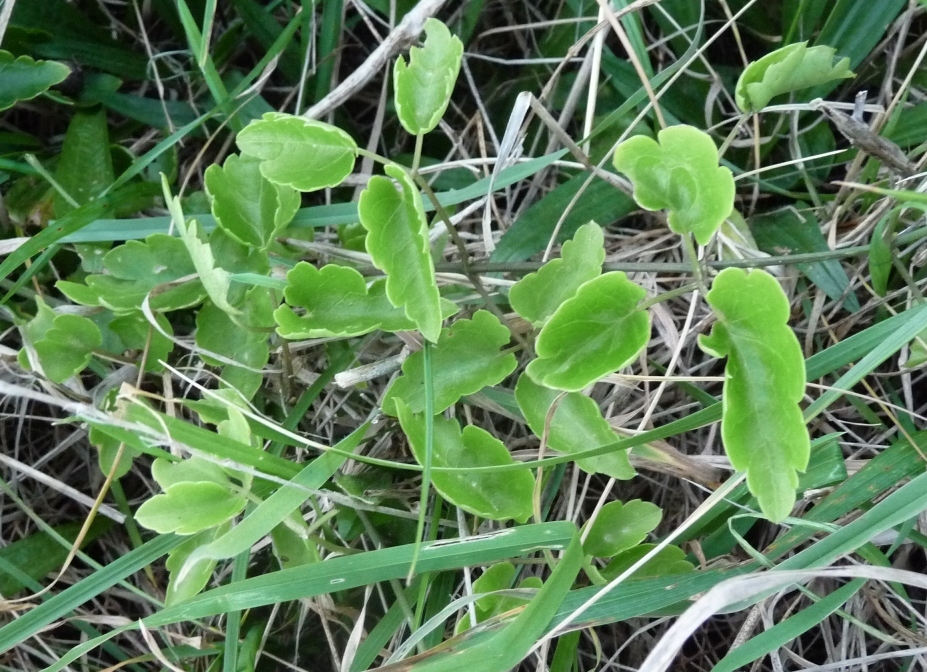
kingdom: Plantae
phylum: Tracheophyta
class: Magnoliopsida
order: Ranunculales
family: Ranunculaceae
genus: Clematis
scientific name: Clematis forsteri
